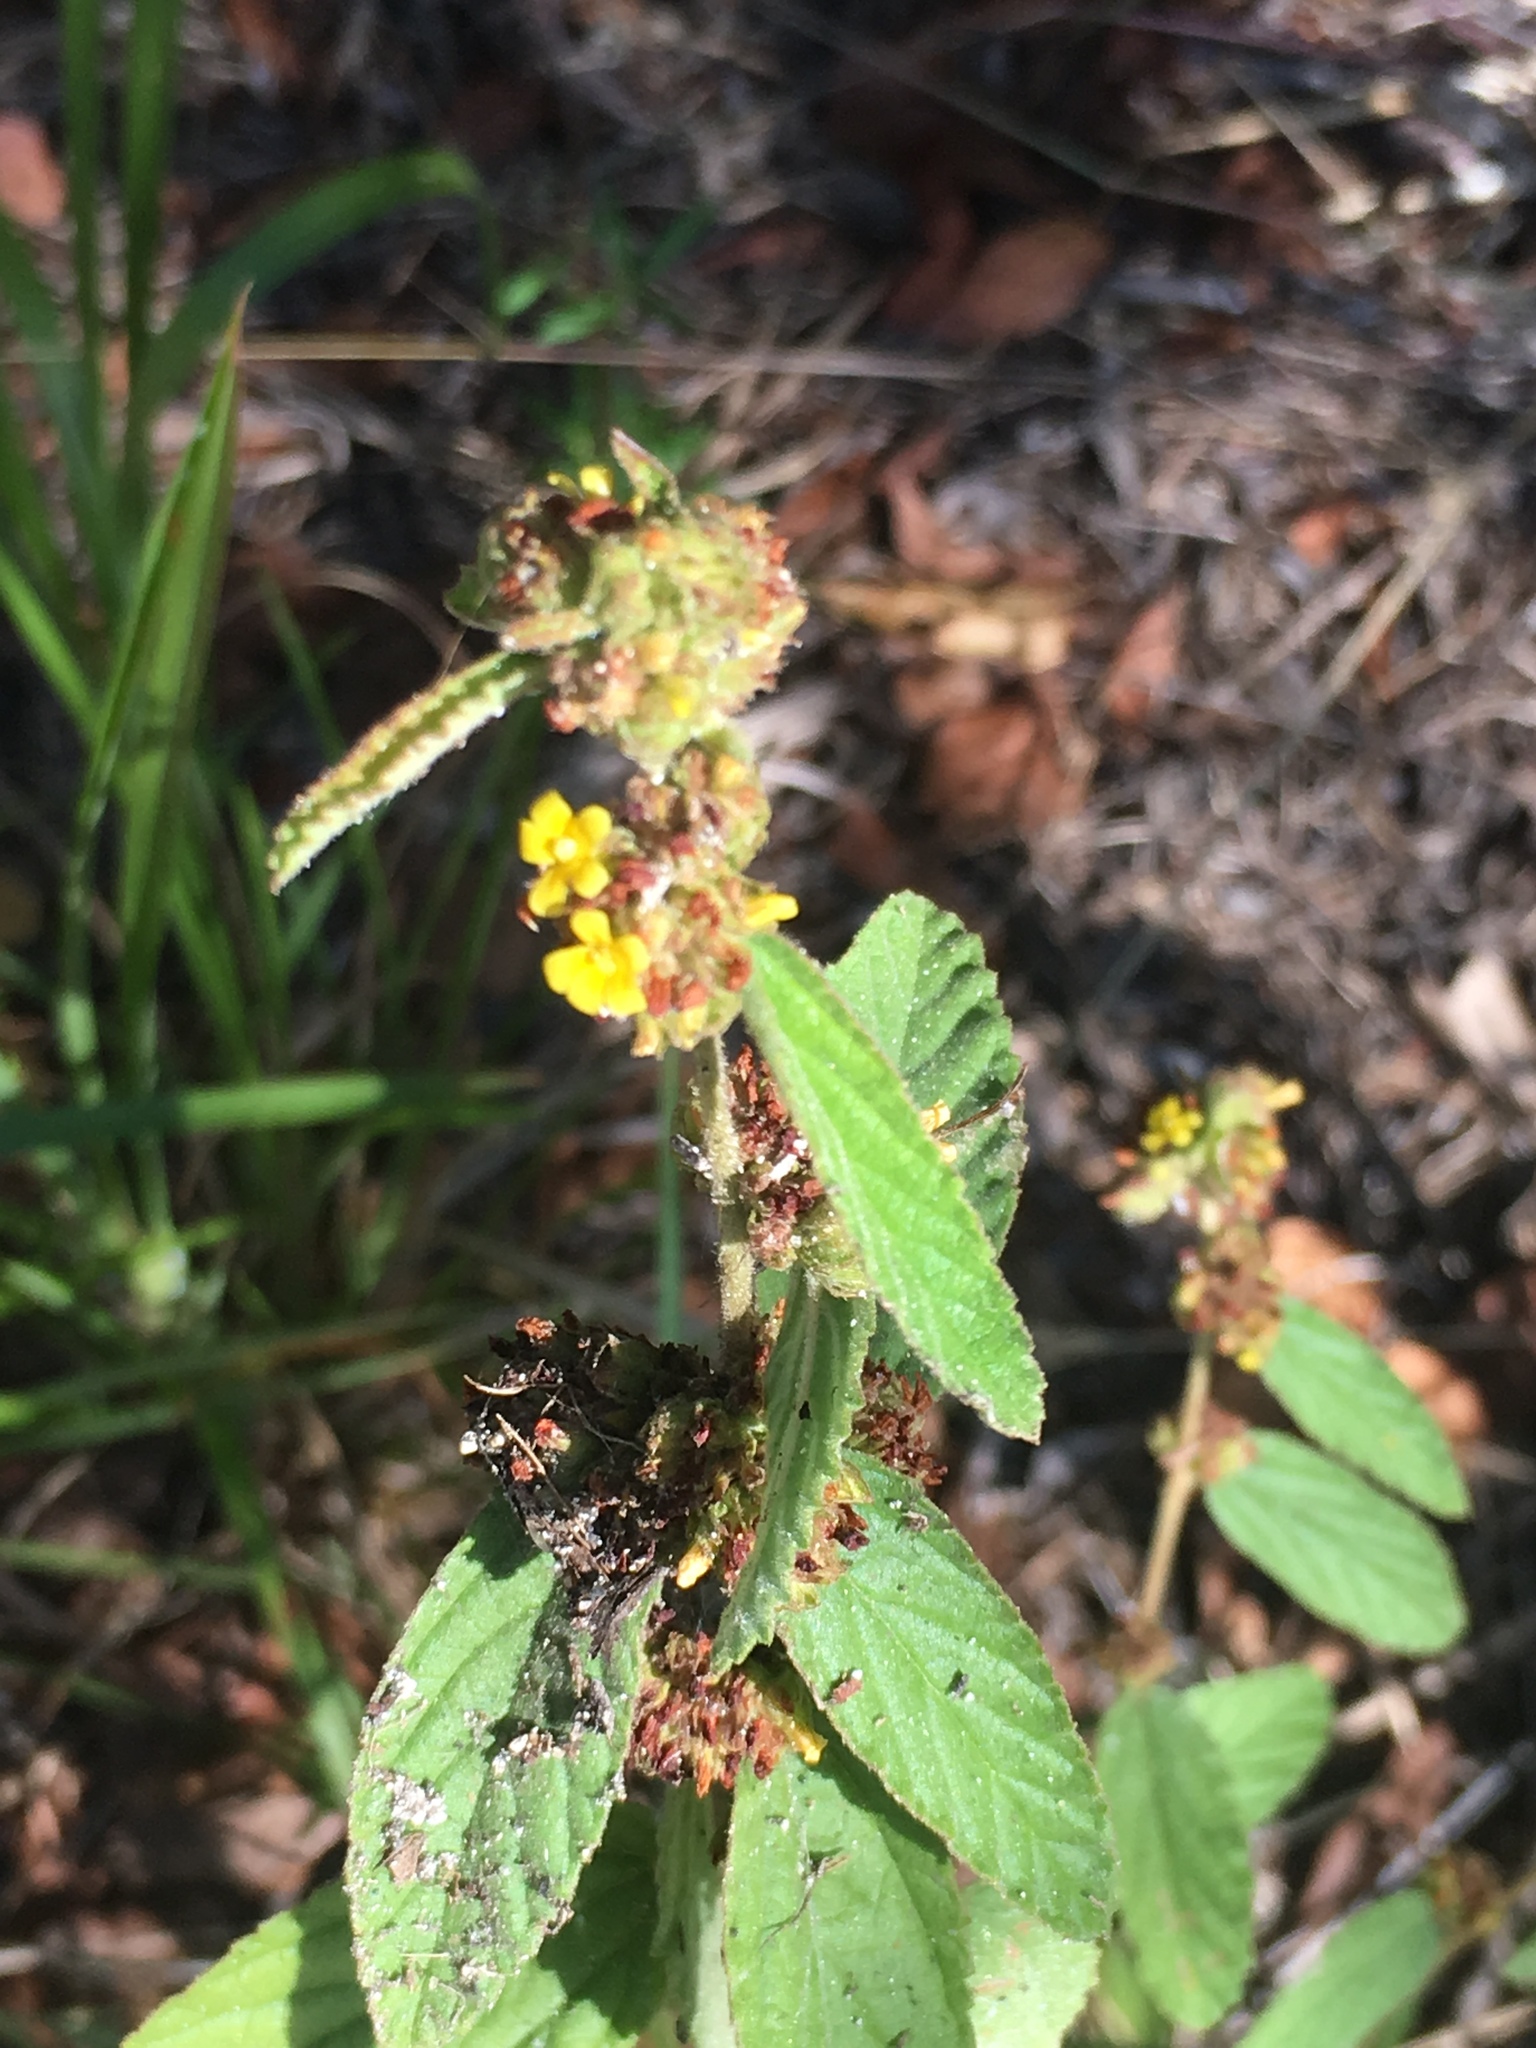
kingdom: Plantae
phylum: Tracheophyta
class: Magnoliopsida
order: Malvales
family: Malvaceae
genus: Waltheria
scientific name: Waltheria indica
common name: Leather-coat
